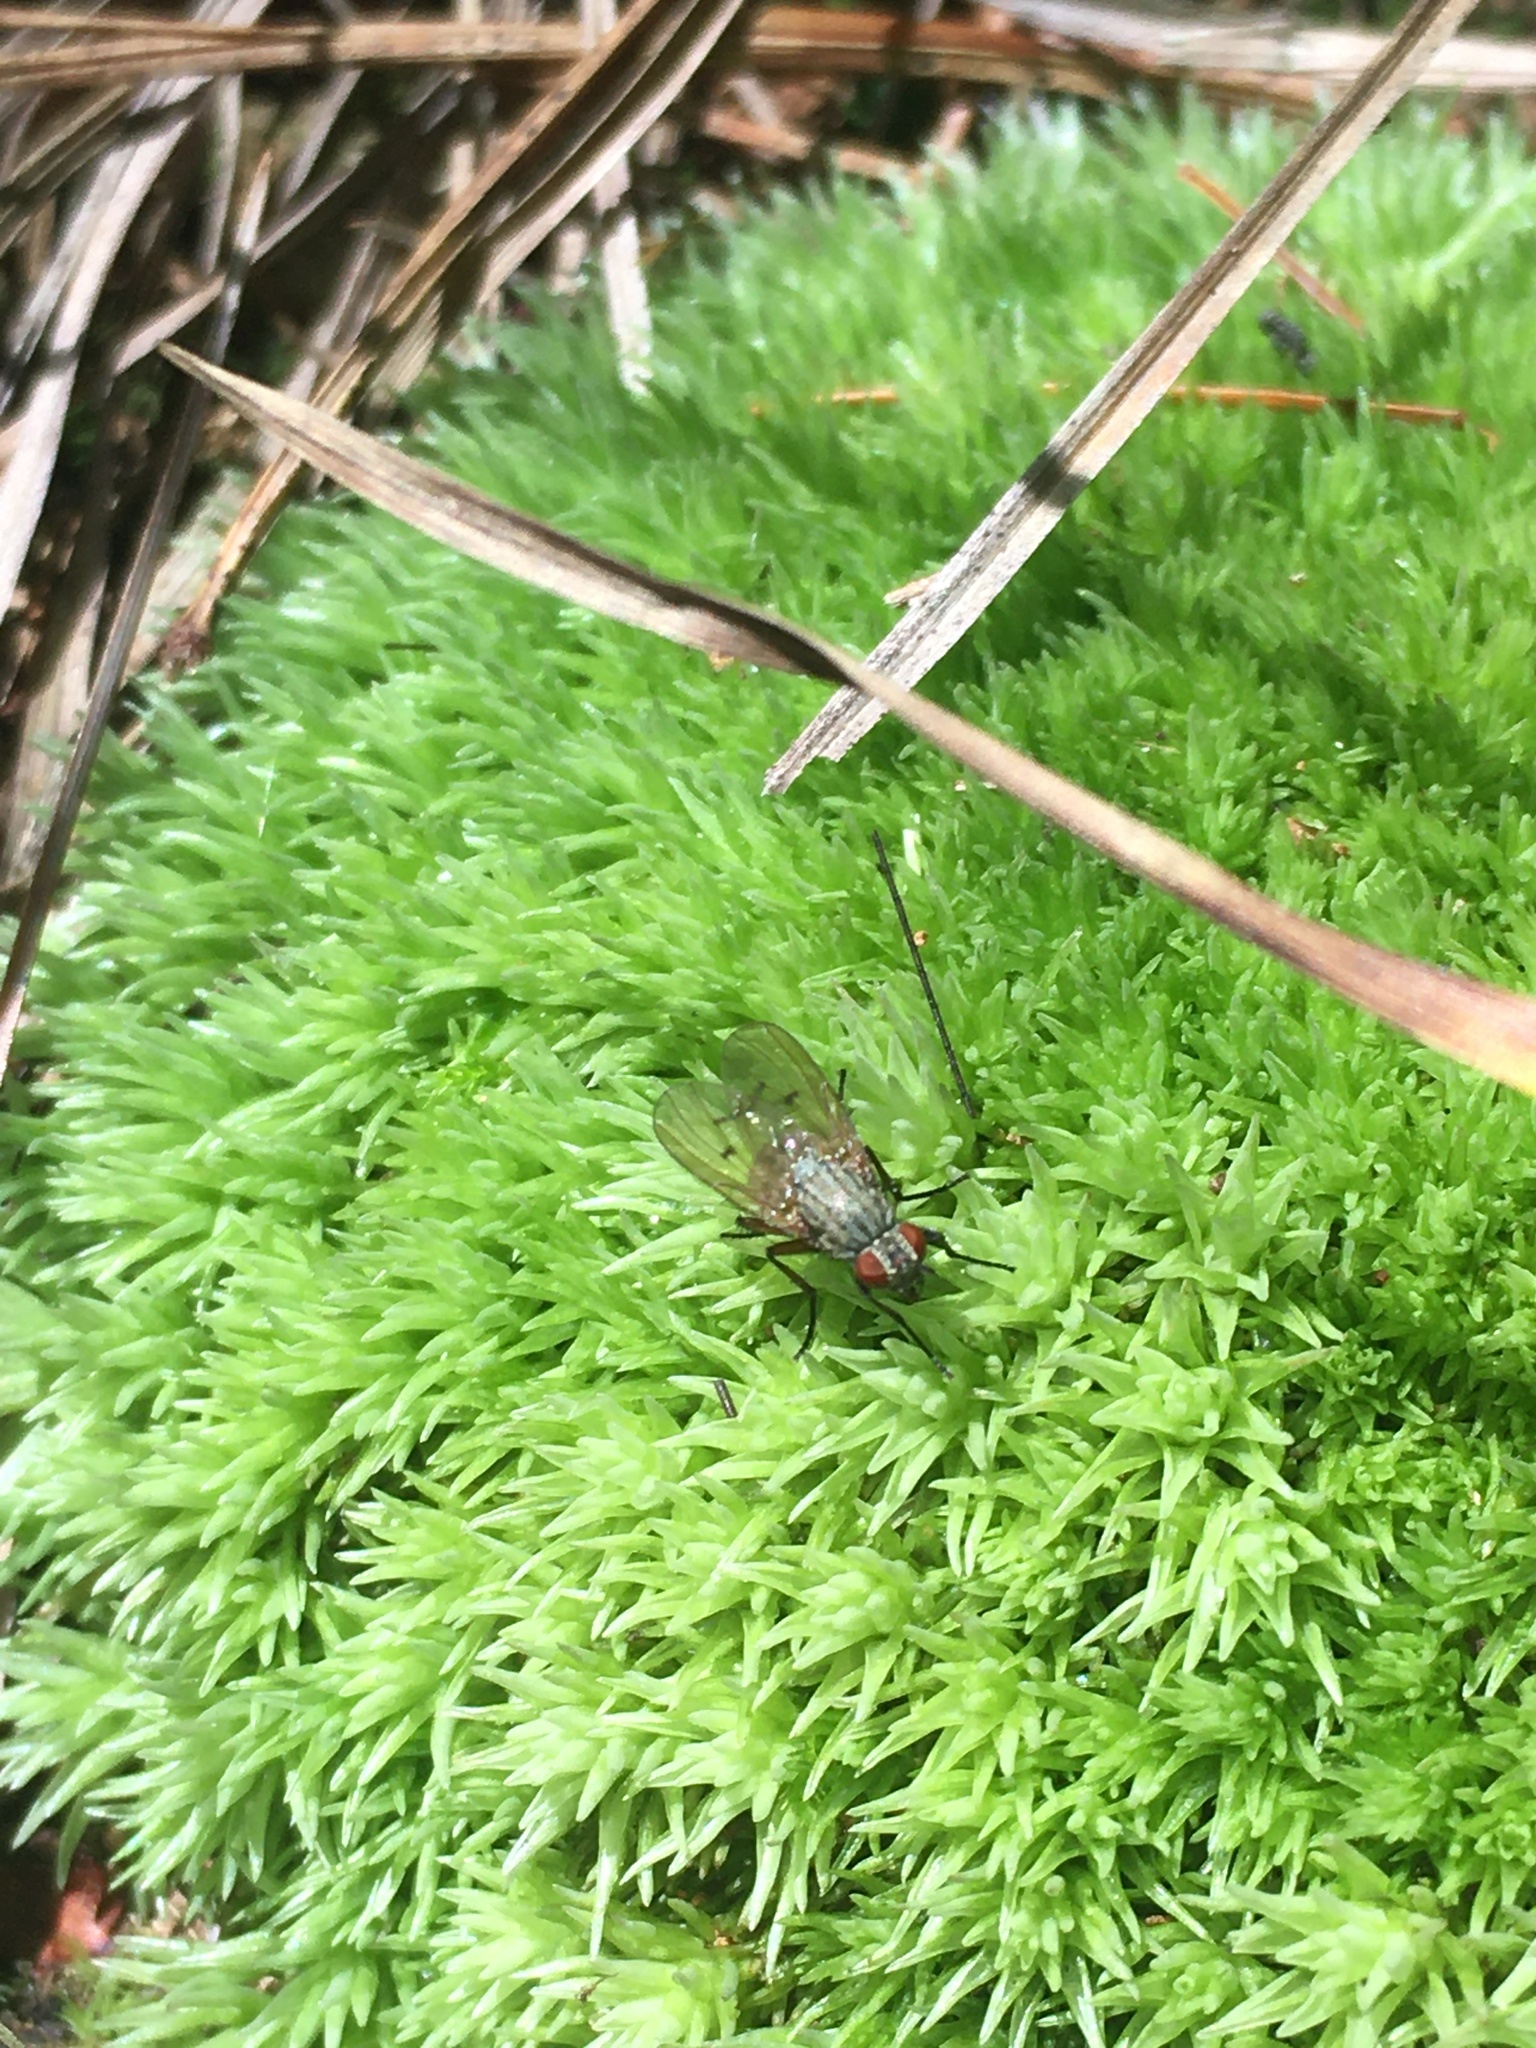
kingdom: Plantae
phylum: Bryophyta
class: Bryopsida
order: Dicranales
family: Leucobryaceae
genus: Leucobryum
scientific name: Leucobryum glaucum
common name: Large white-moss
